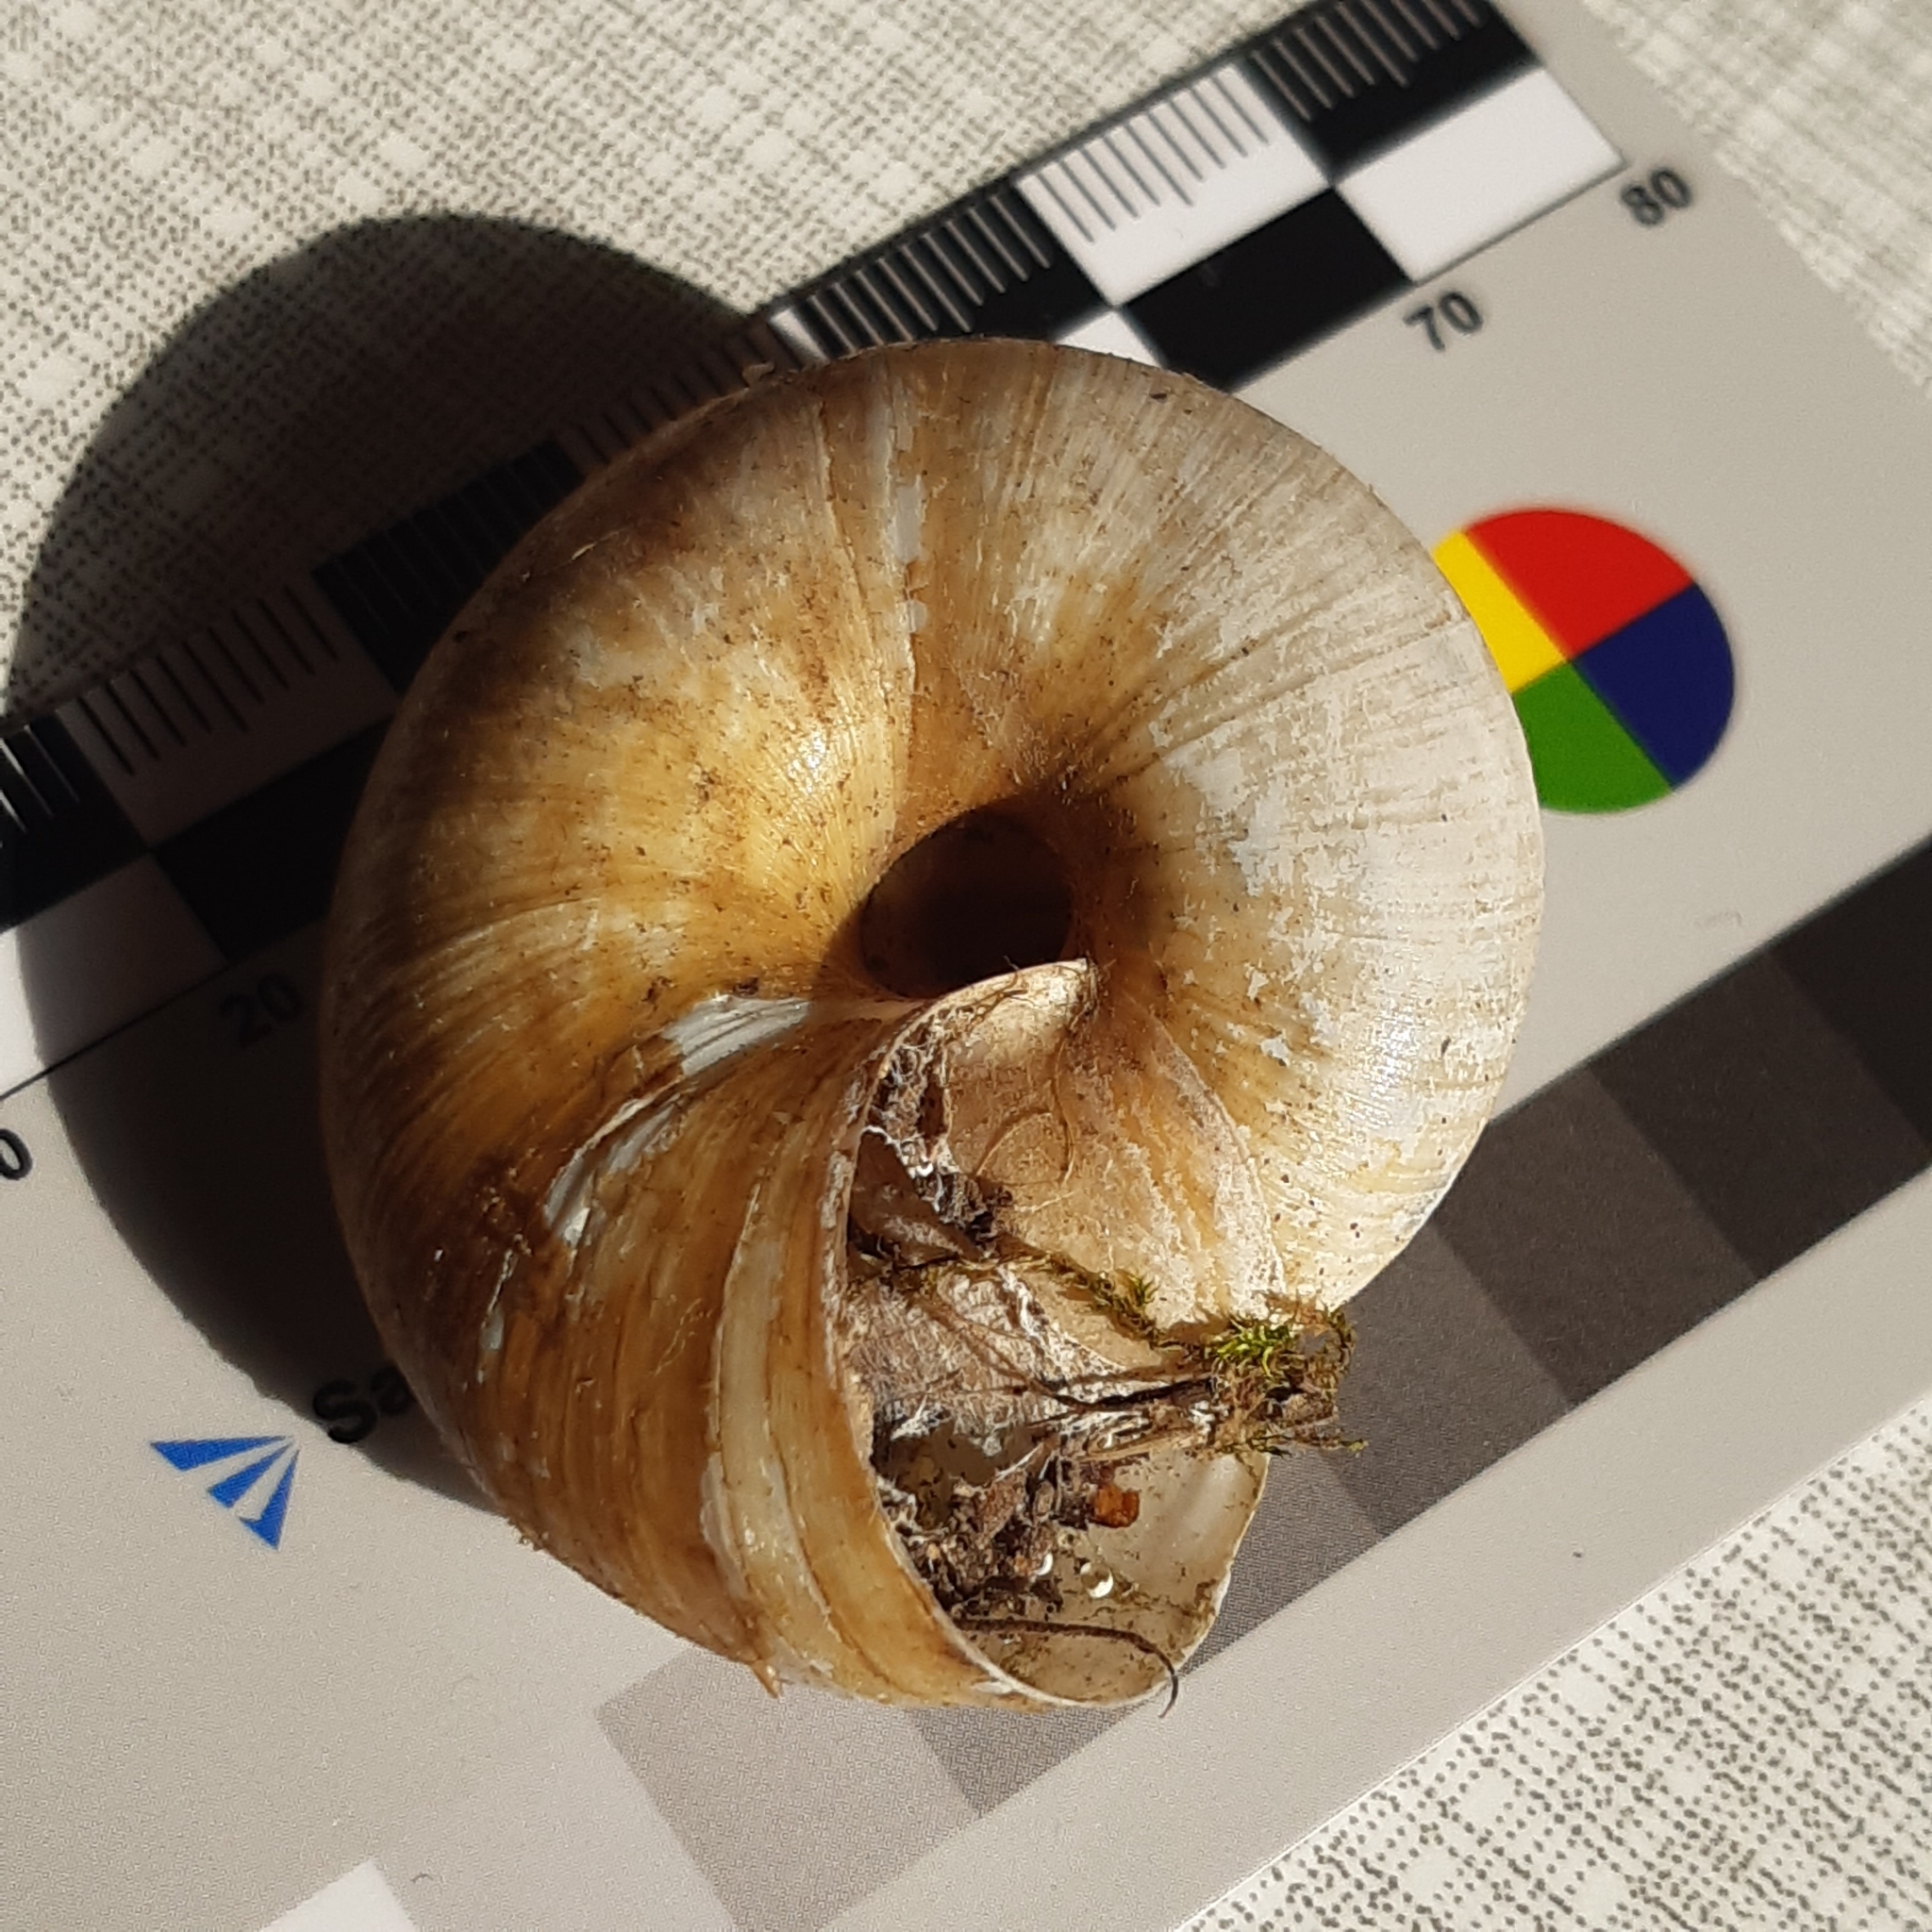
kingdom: Animalia
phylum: Mollusca
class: Gastropoda
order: Stylommatophora
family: Zonitidae
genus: Zonites
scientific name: Zonites algirus
